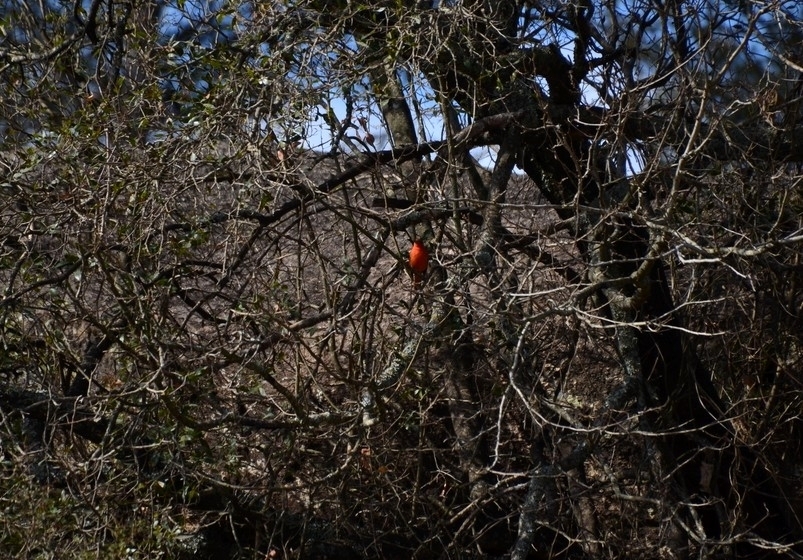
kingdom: Animalia
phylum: Chordata
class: Aves
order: Passeriformes
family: Cardinalidae
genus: Piranga
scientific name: Piranga flava
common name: Red tanager
